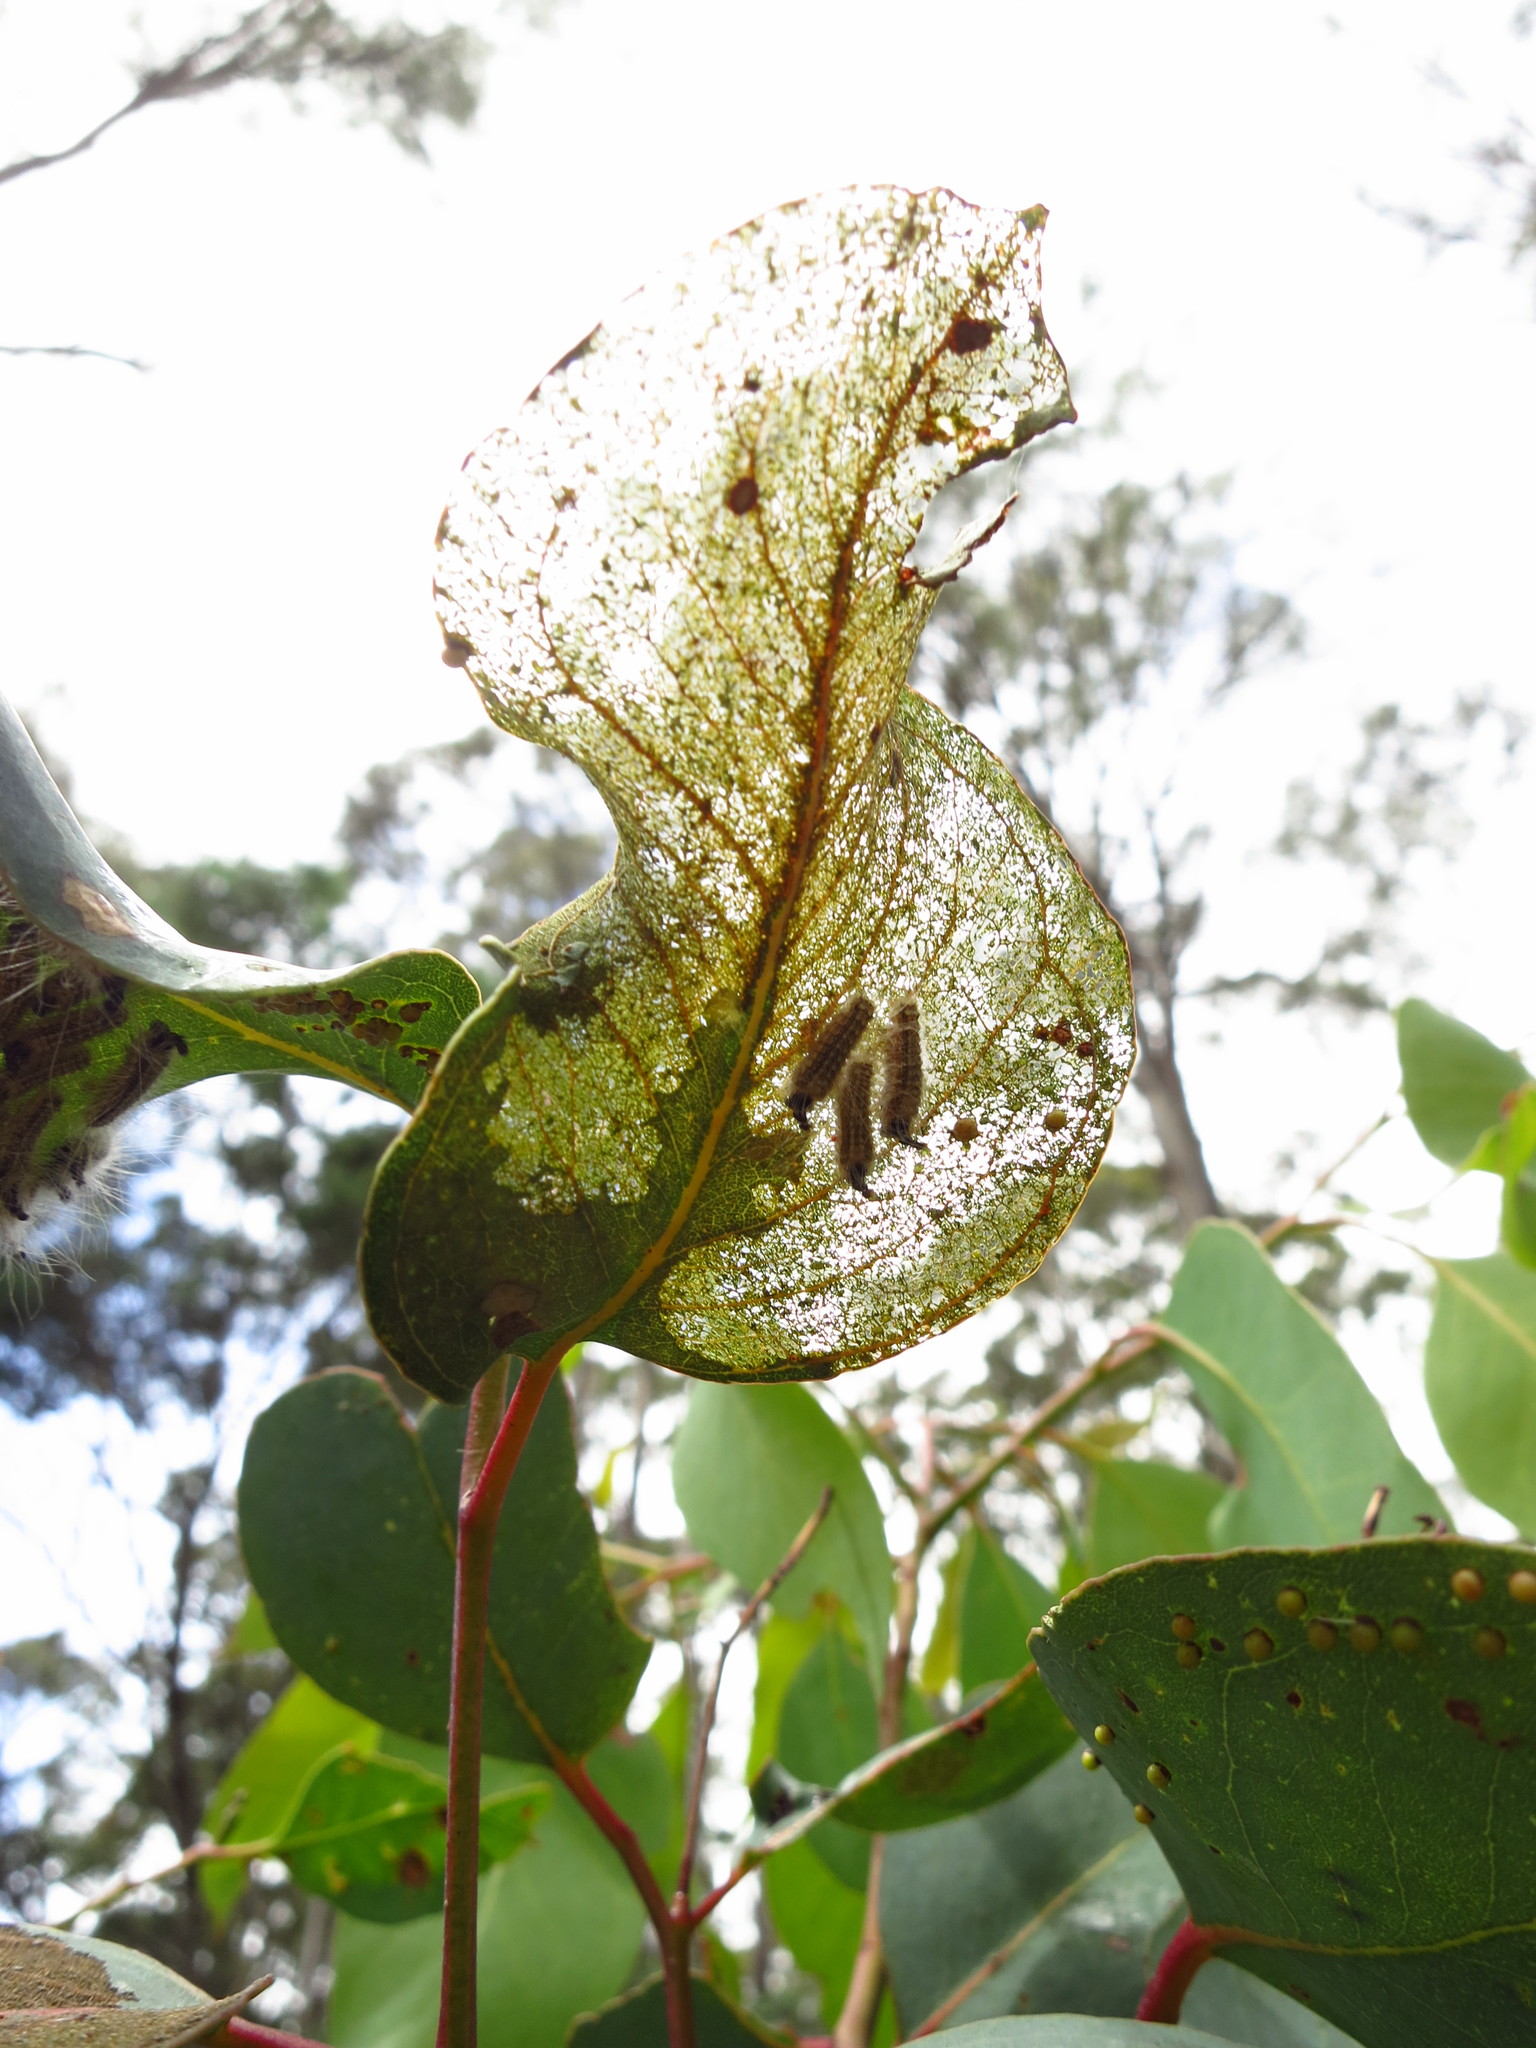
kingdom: Animalia
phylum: Arthropoda
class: Insecta
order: Lepidoptera
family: Nolidae
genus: Uraba
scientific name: Uraba lugens
